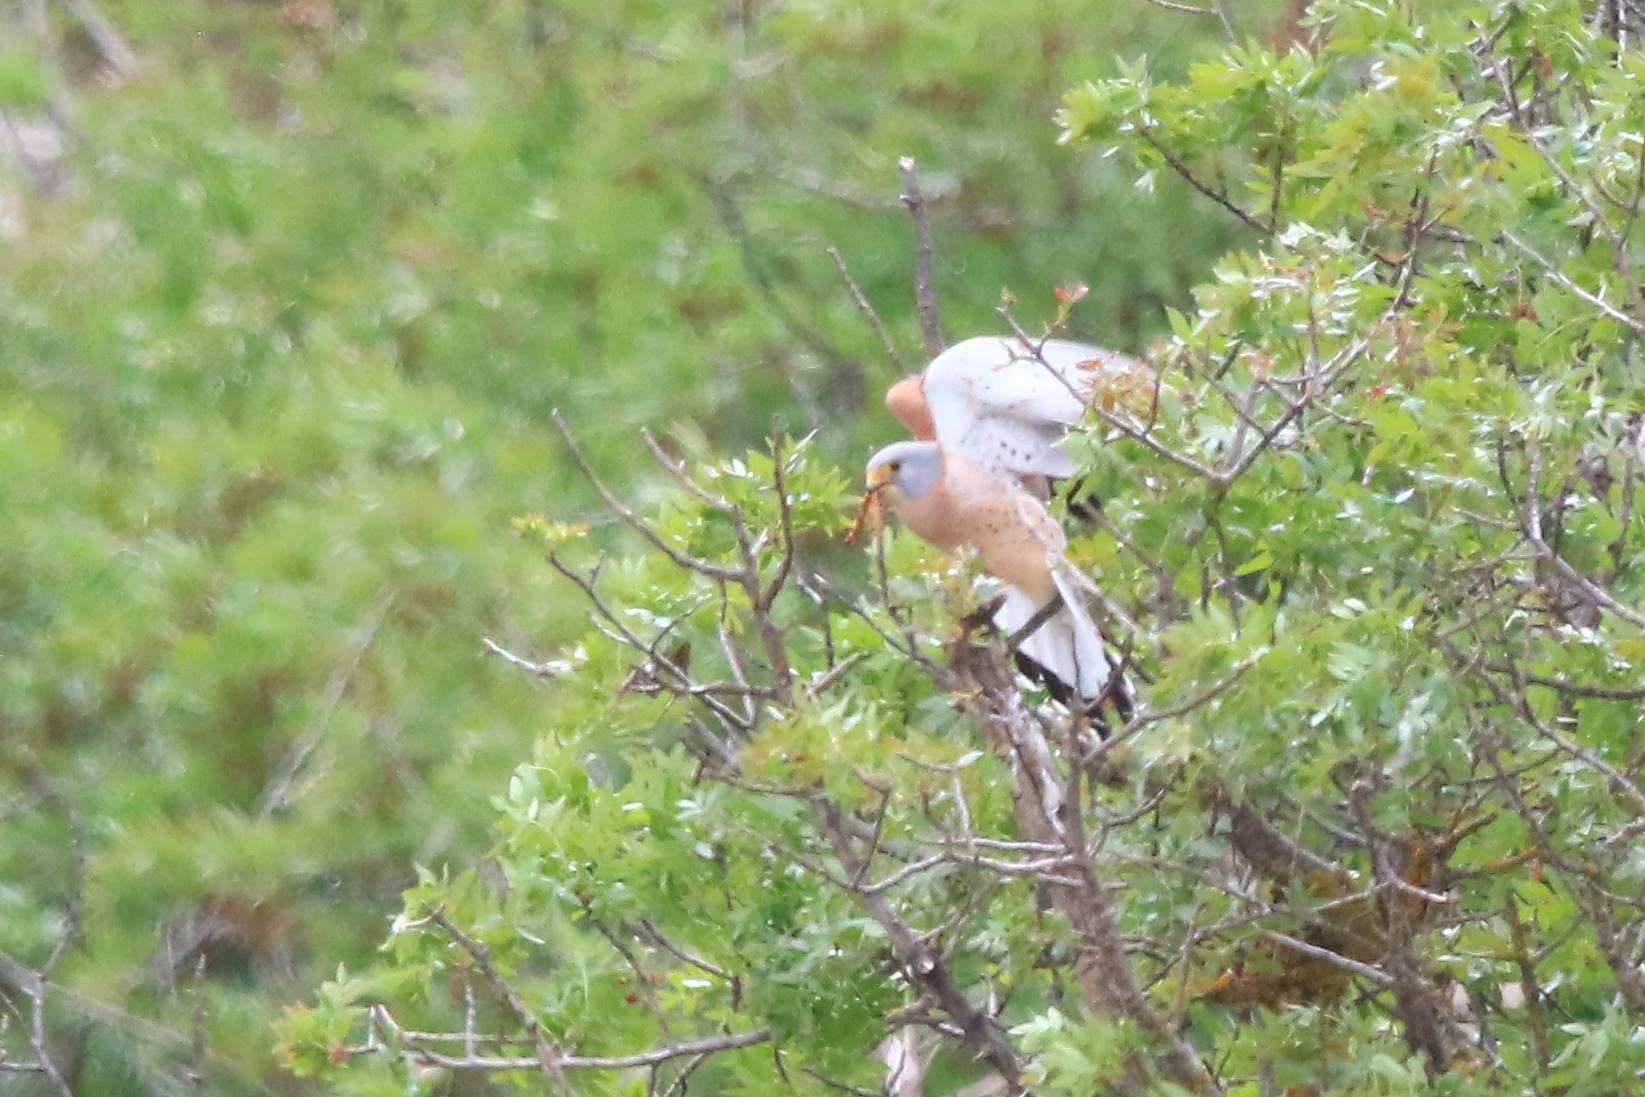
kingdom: Animalia
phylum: Chordata
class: Aves
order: Falconiformes
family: Falconidae
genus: Falco
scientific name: Falco naumanni
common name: Lesser kestrel
